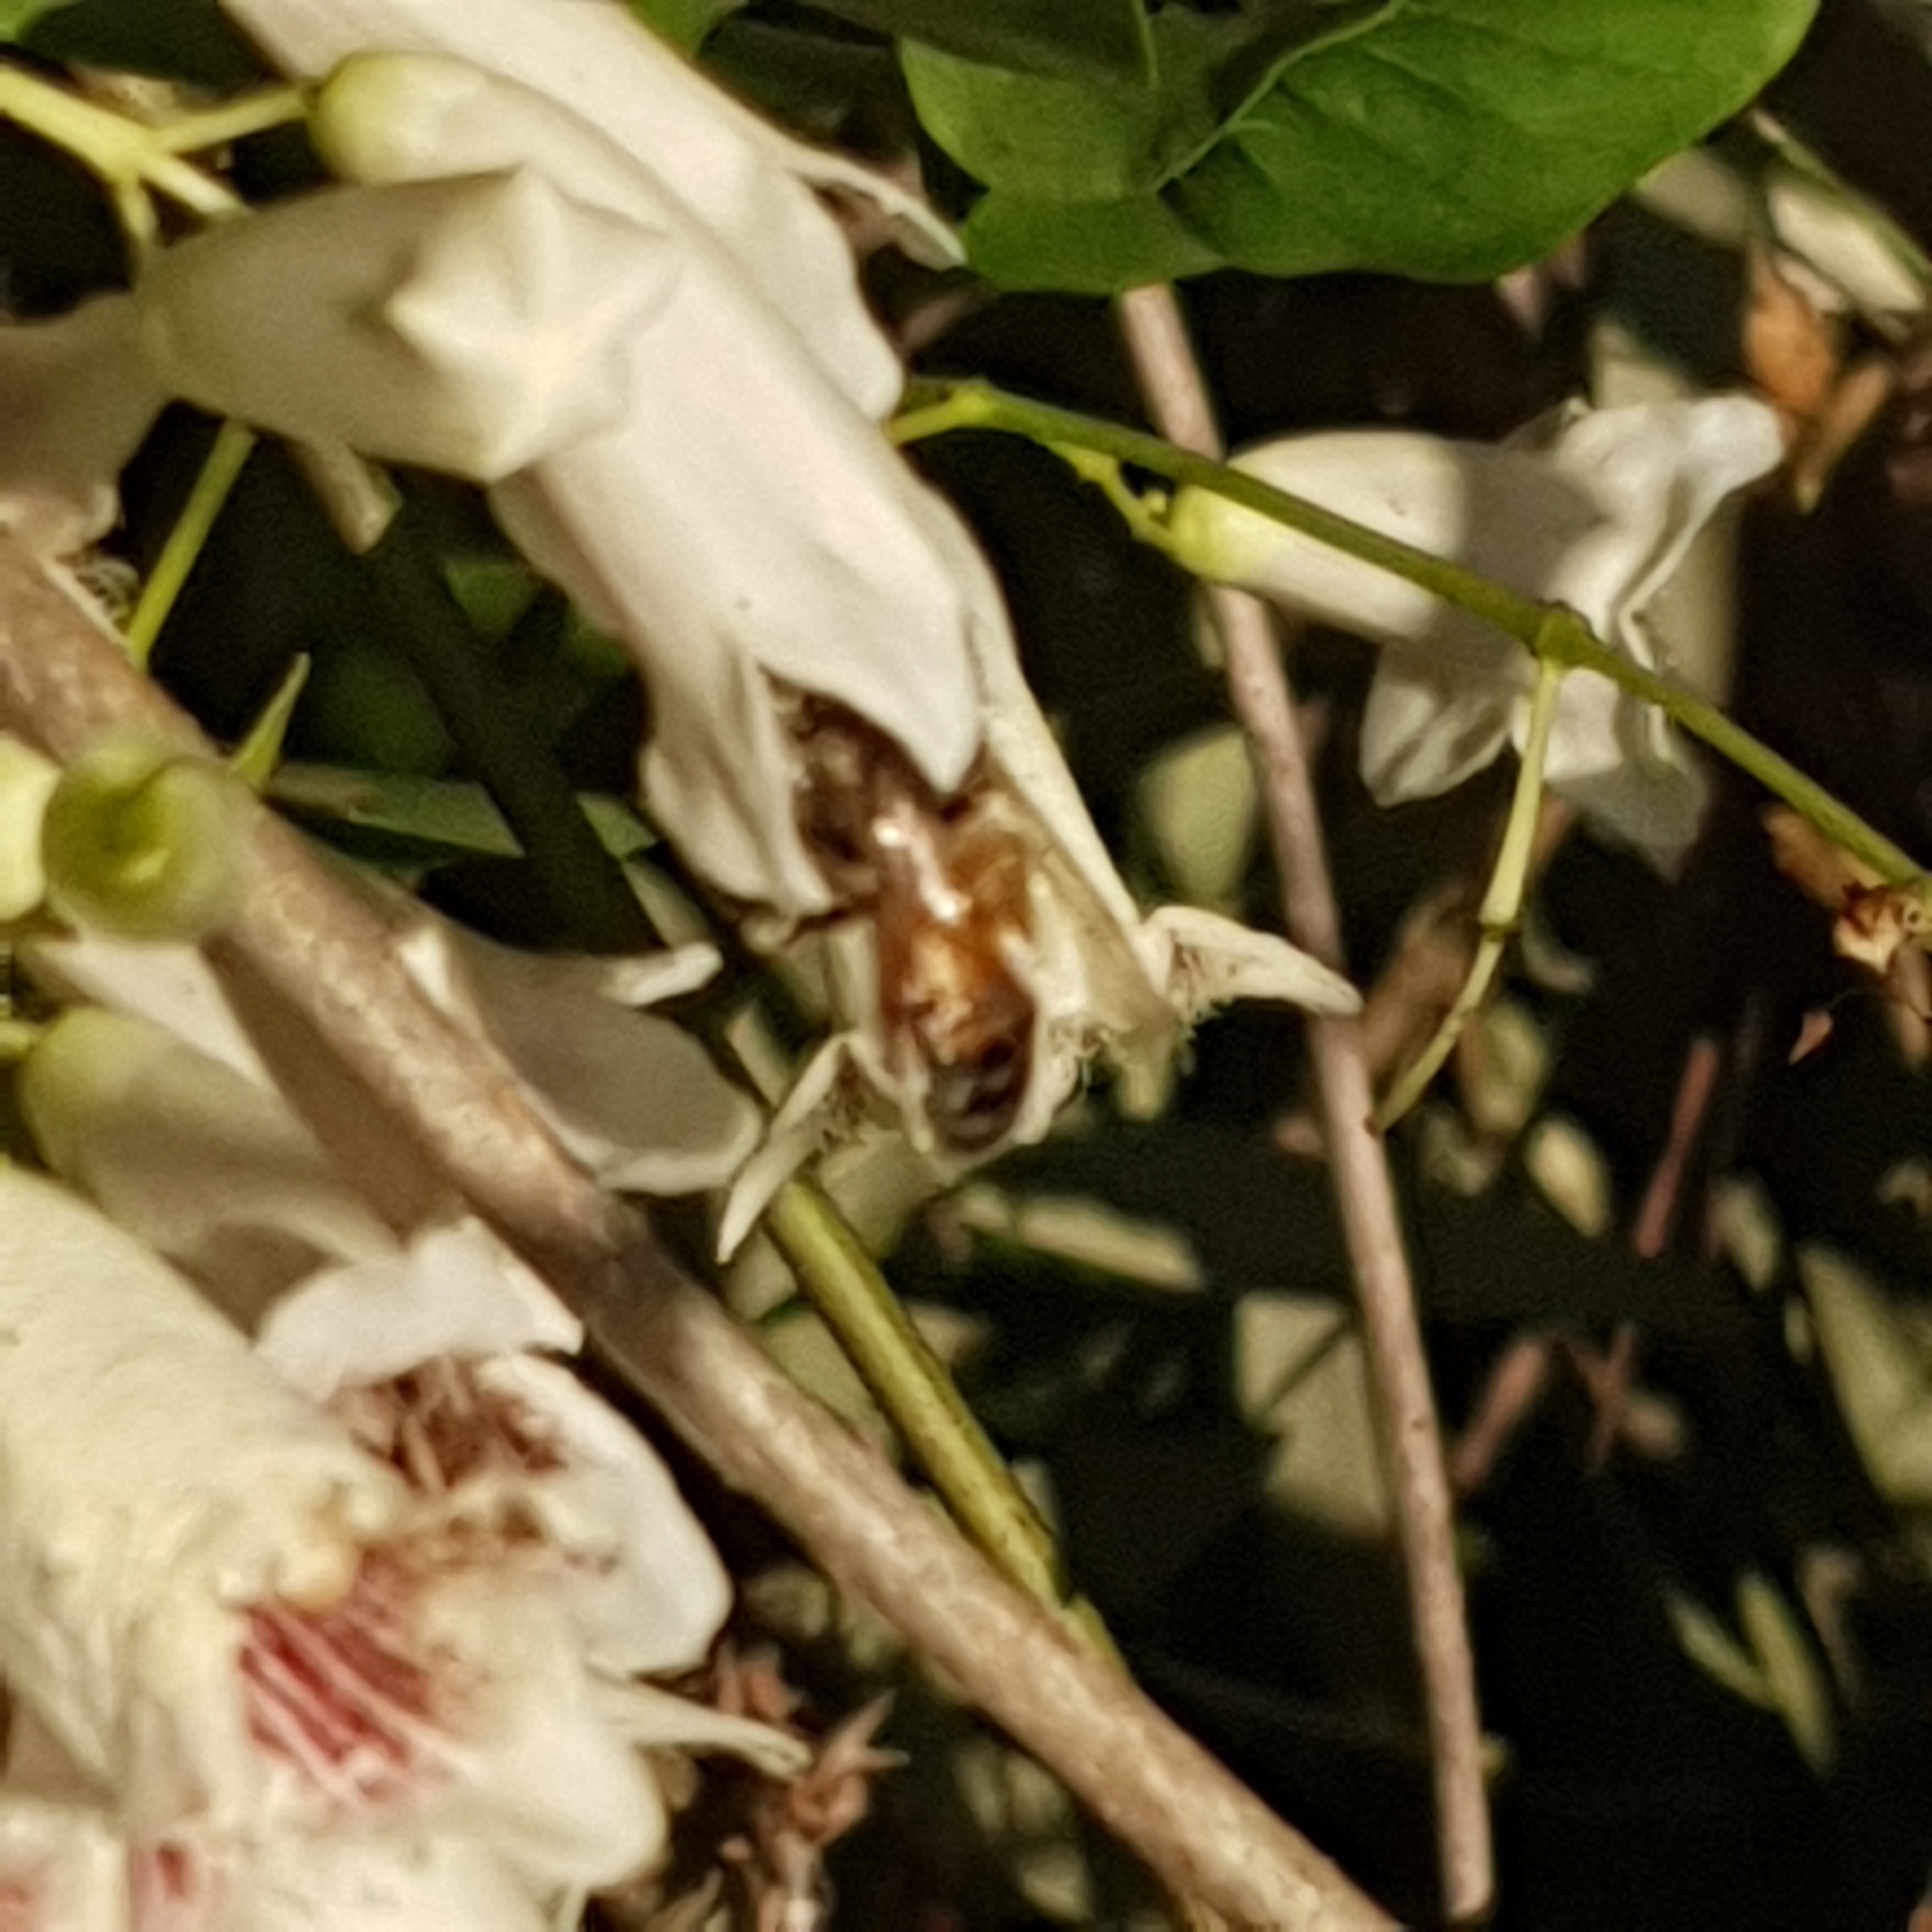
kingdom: Animalia
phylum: Arthropoda
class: Insecta
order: Hymenoptera
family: Apidae
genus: Apis
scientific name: Apis mellifera
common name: Honey bee
